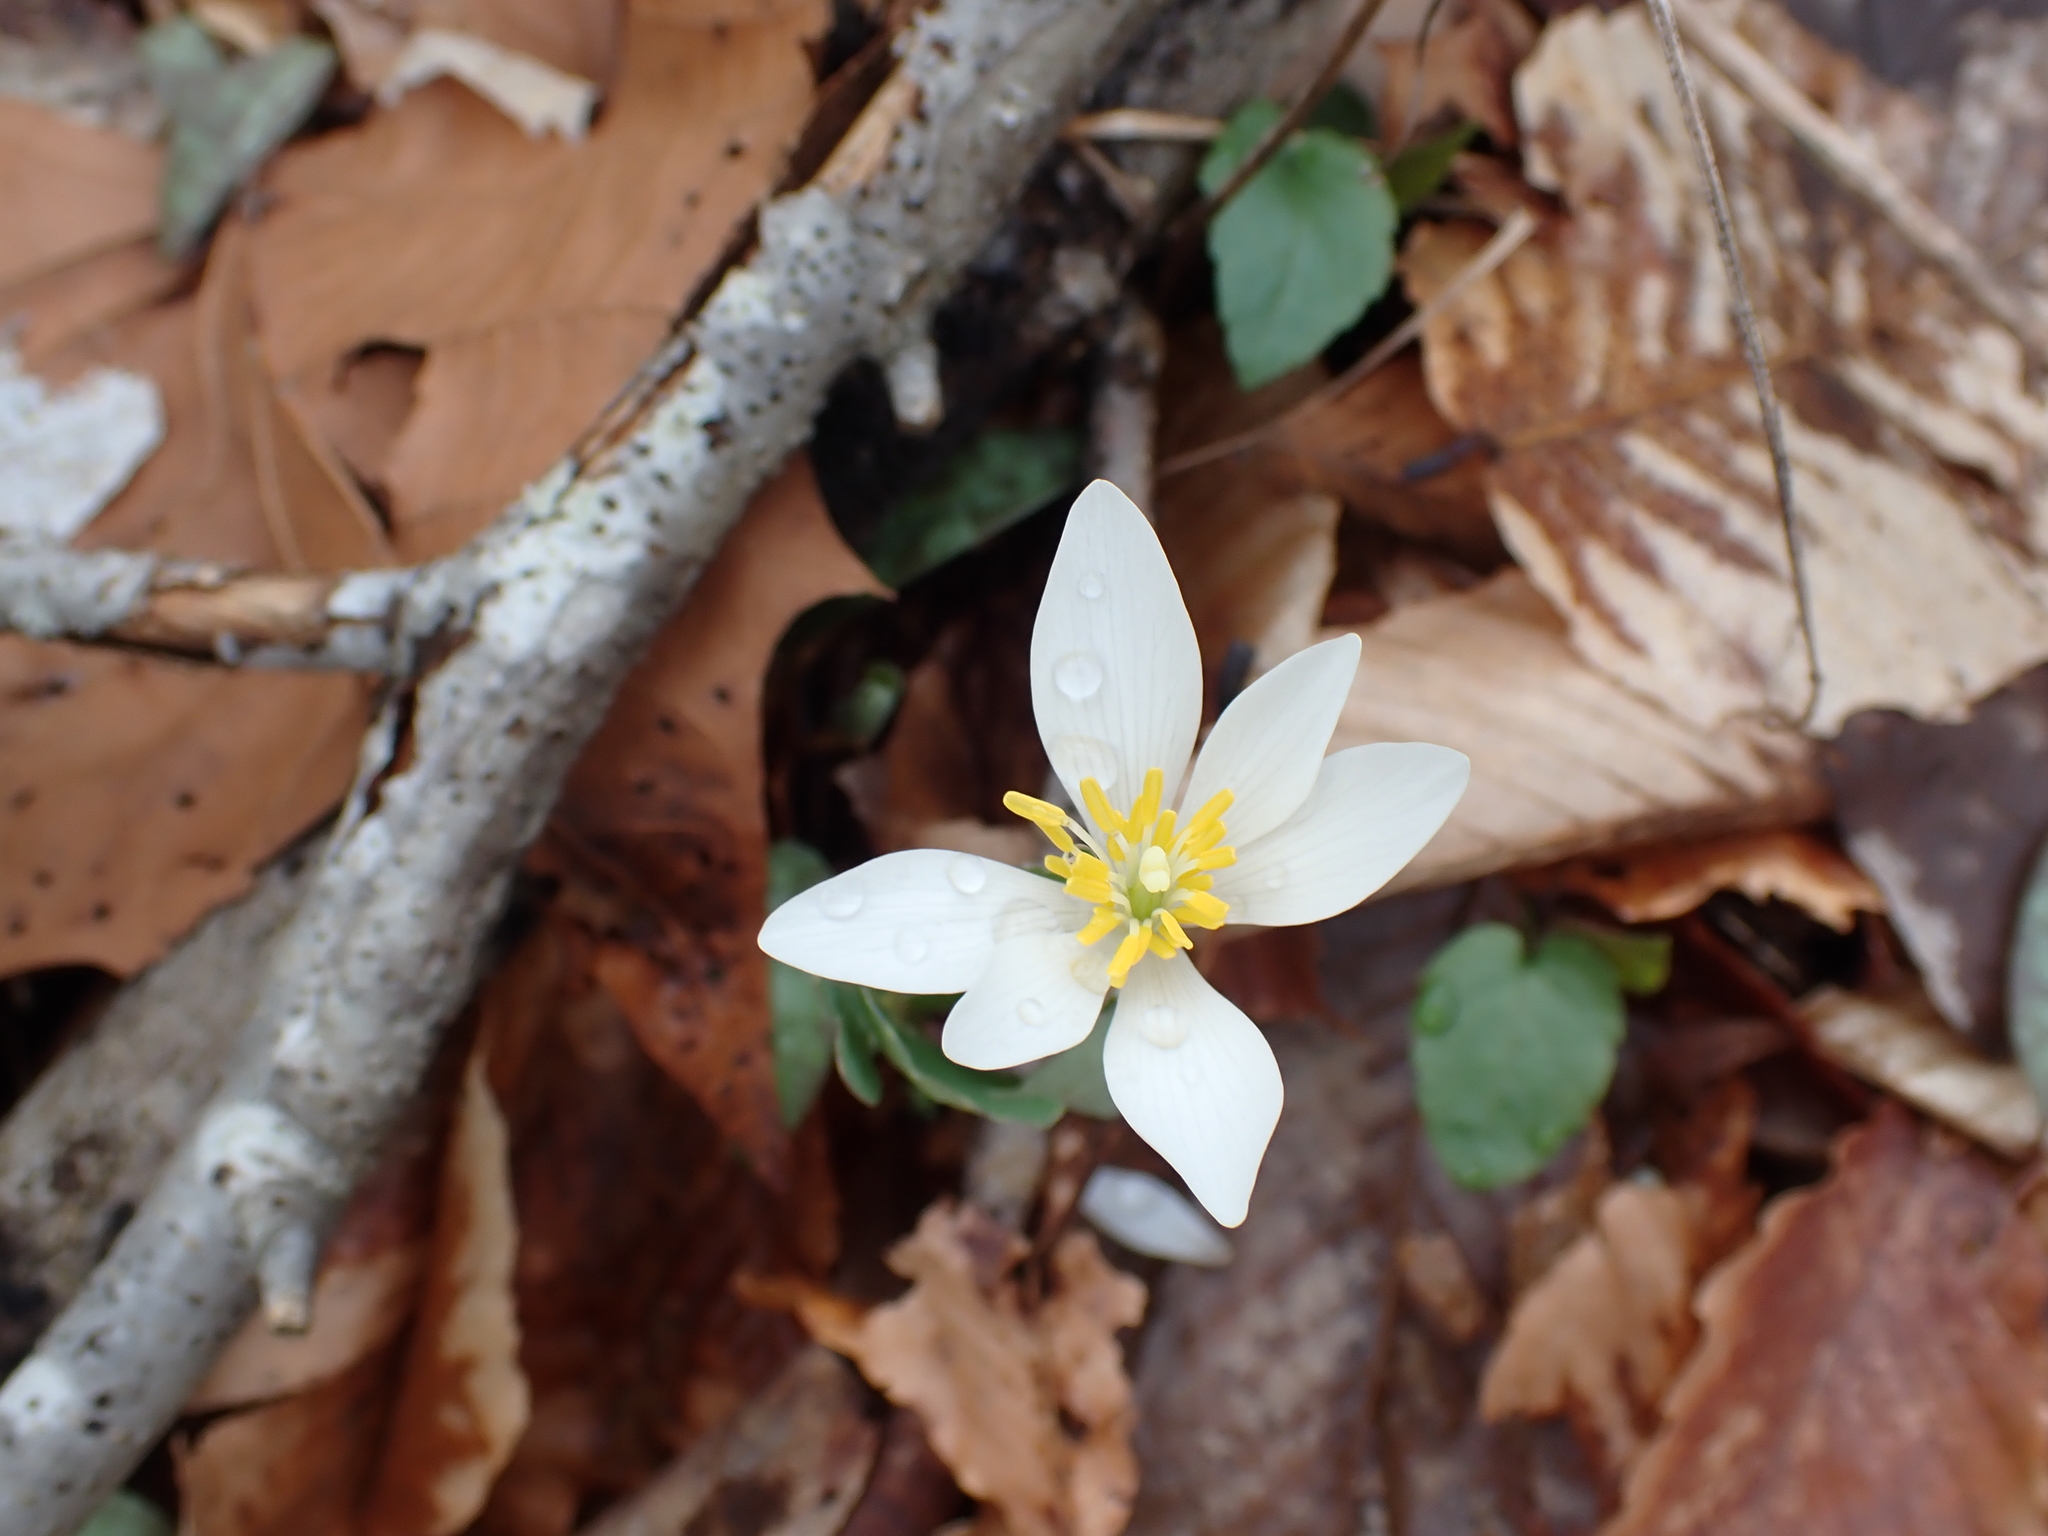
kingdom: Plantae
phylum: Tracheophyta
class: Magnoliopsida
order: Ranunculales
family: Papaveraceae
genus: Sanguinaria
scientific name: Sanguinaria canadensis
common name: Bloodroot
